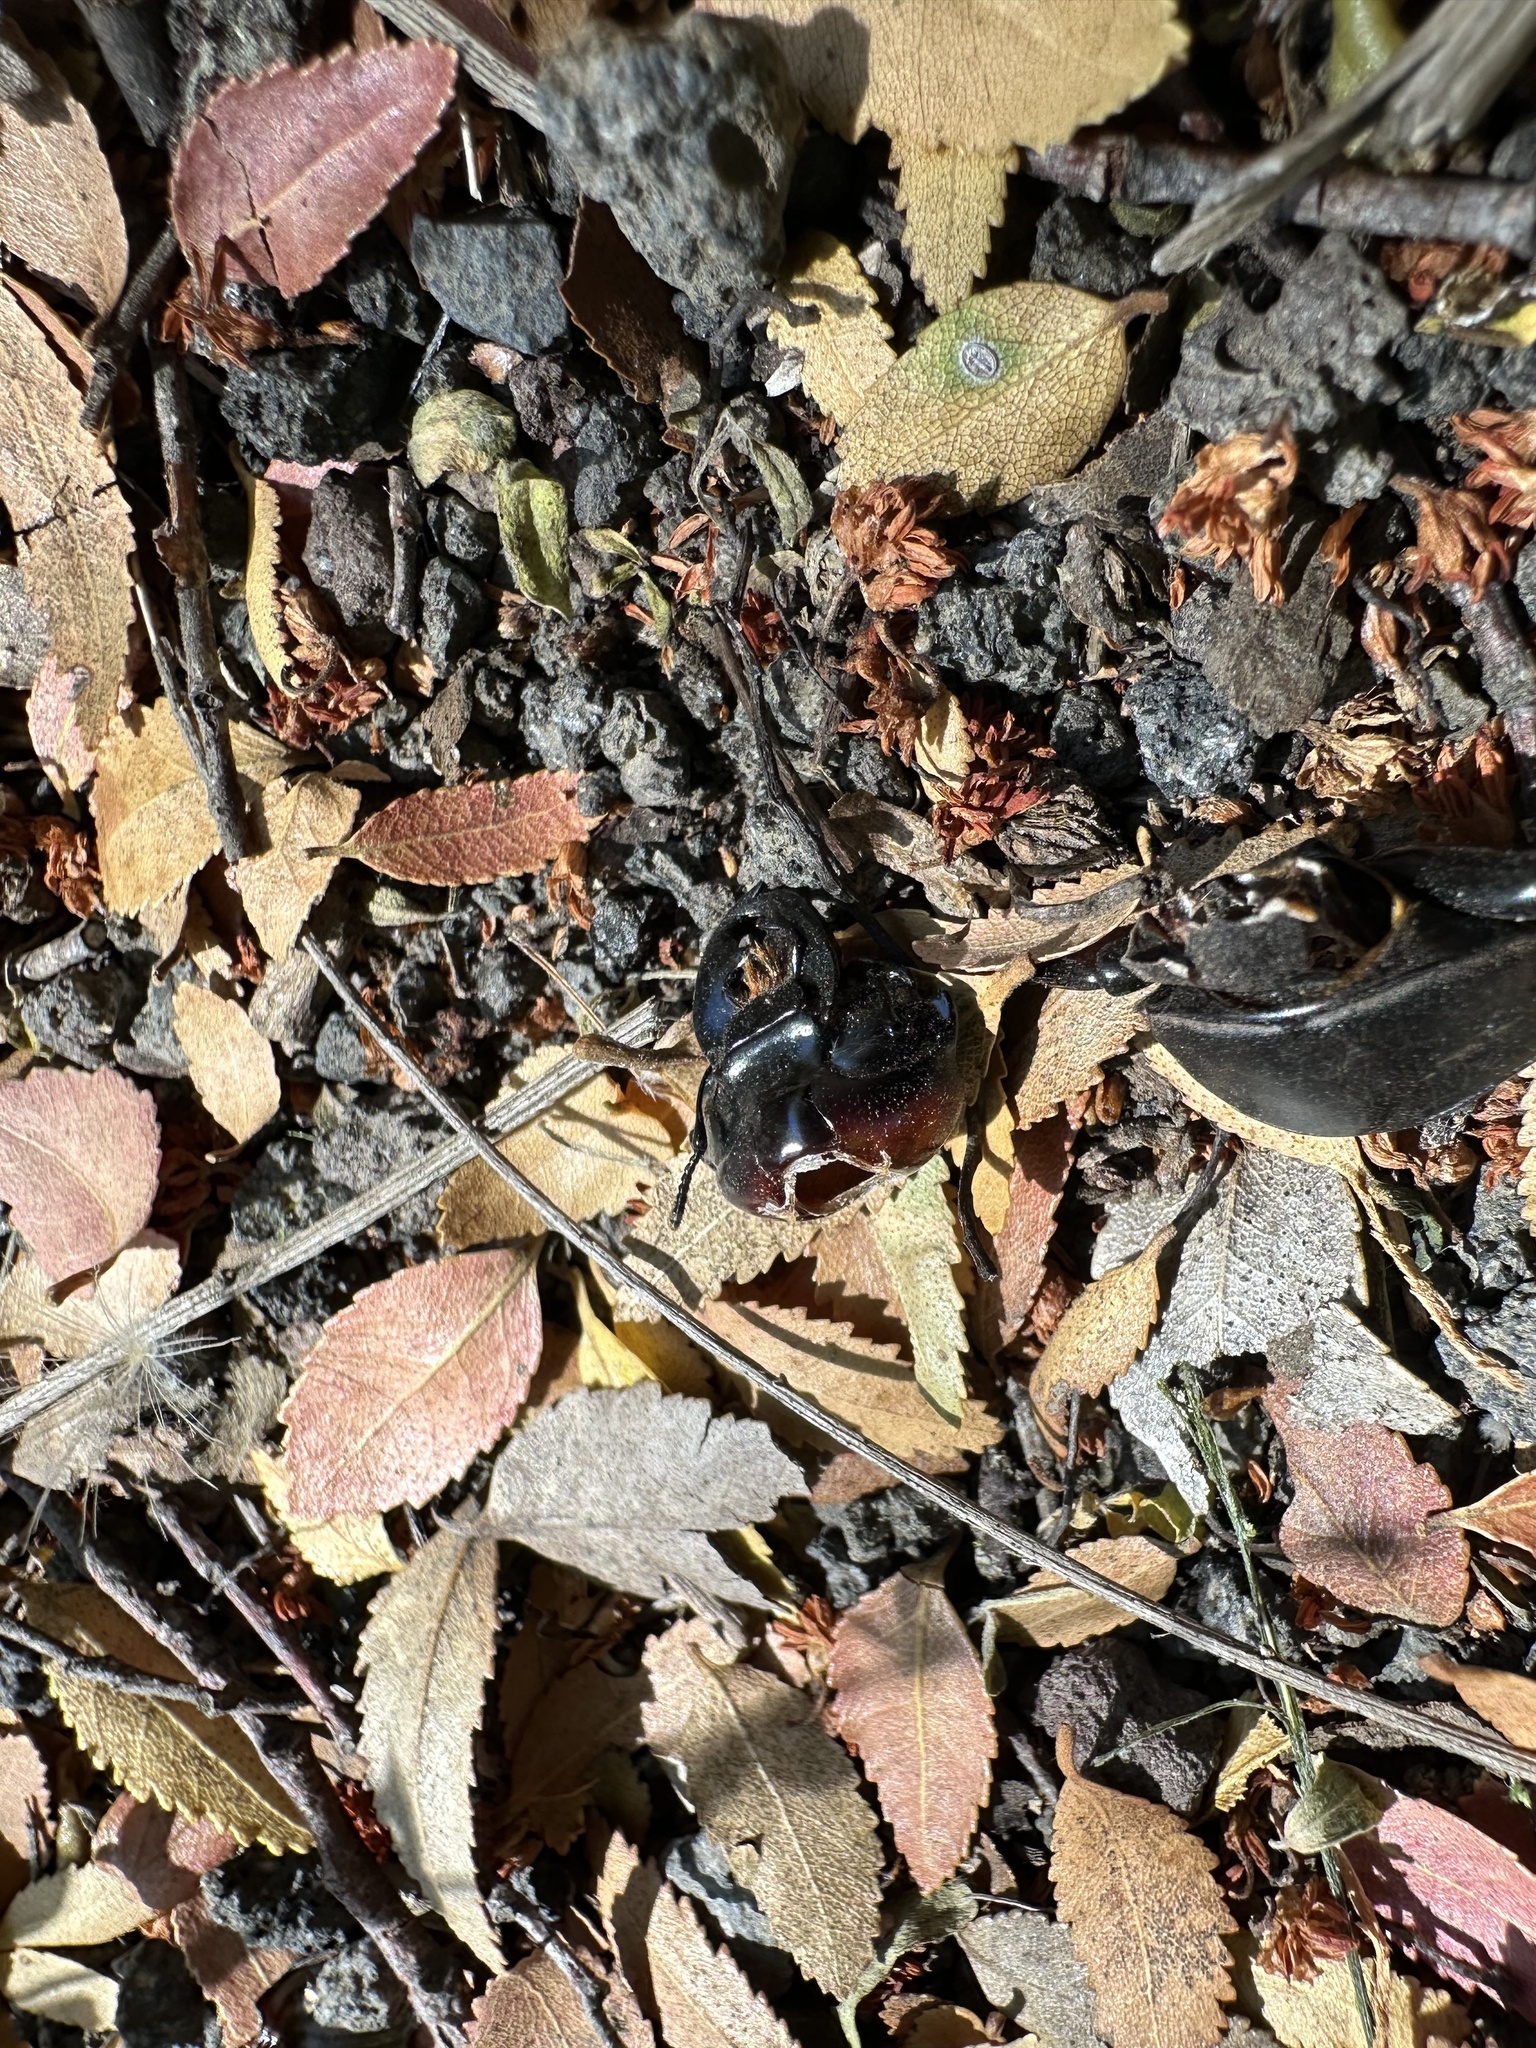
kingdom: Animalia
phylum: Arthropoda
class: Insecta
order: Coleoptera
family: Lucanidae
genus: Apterodorcus
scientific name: Apterodorcus bacchus
